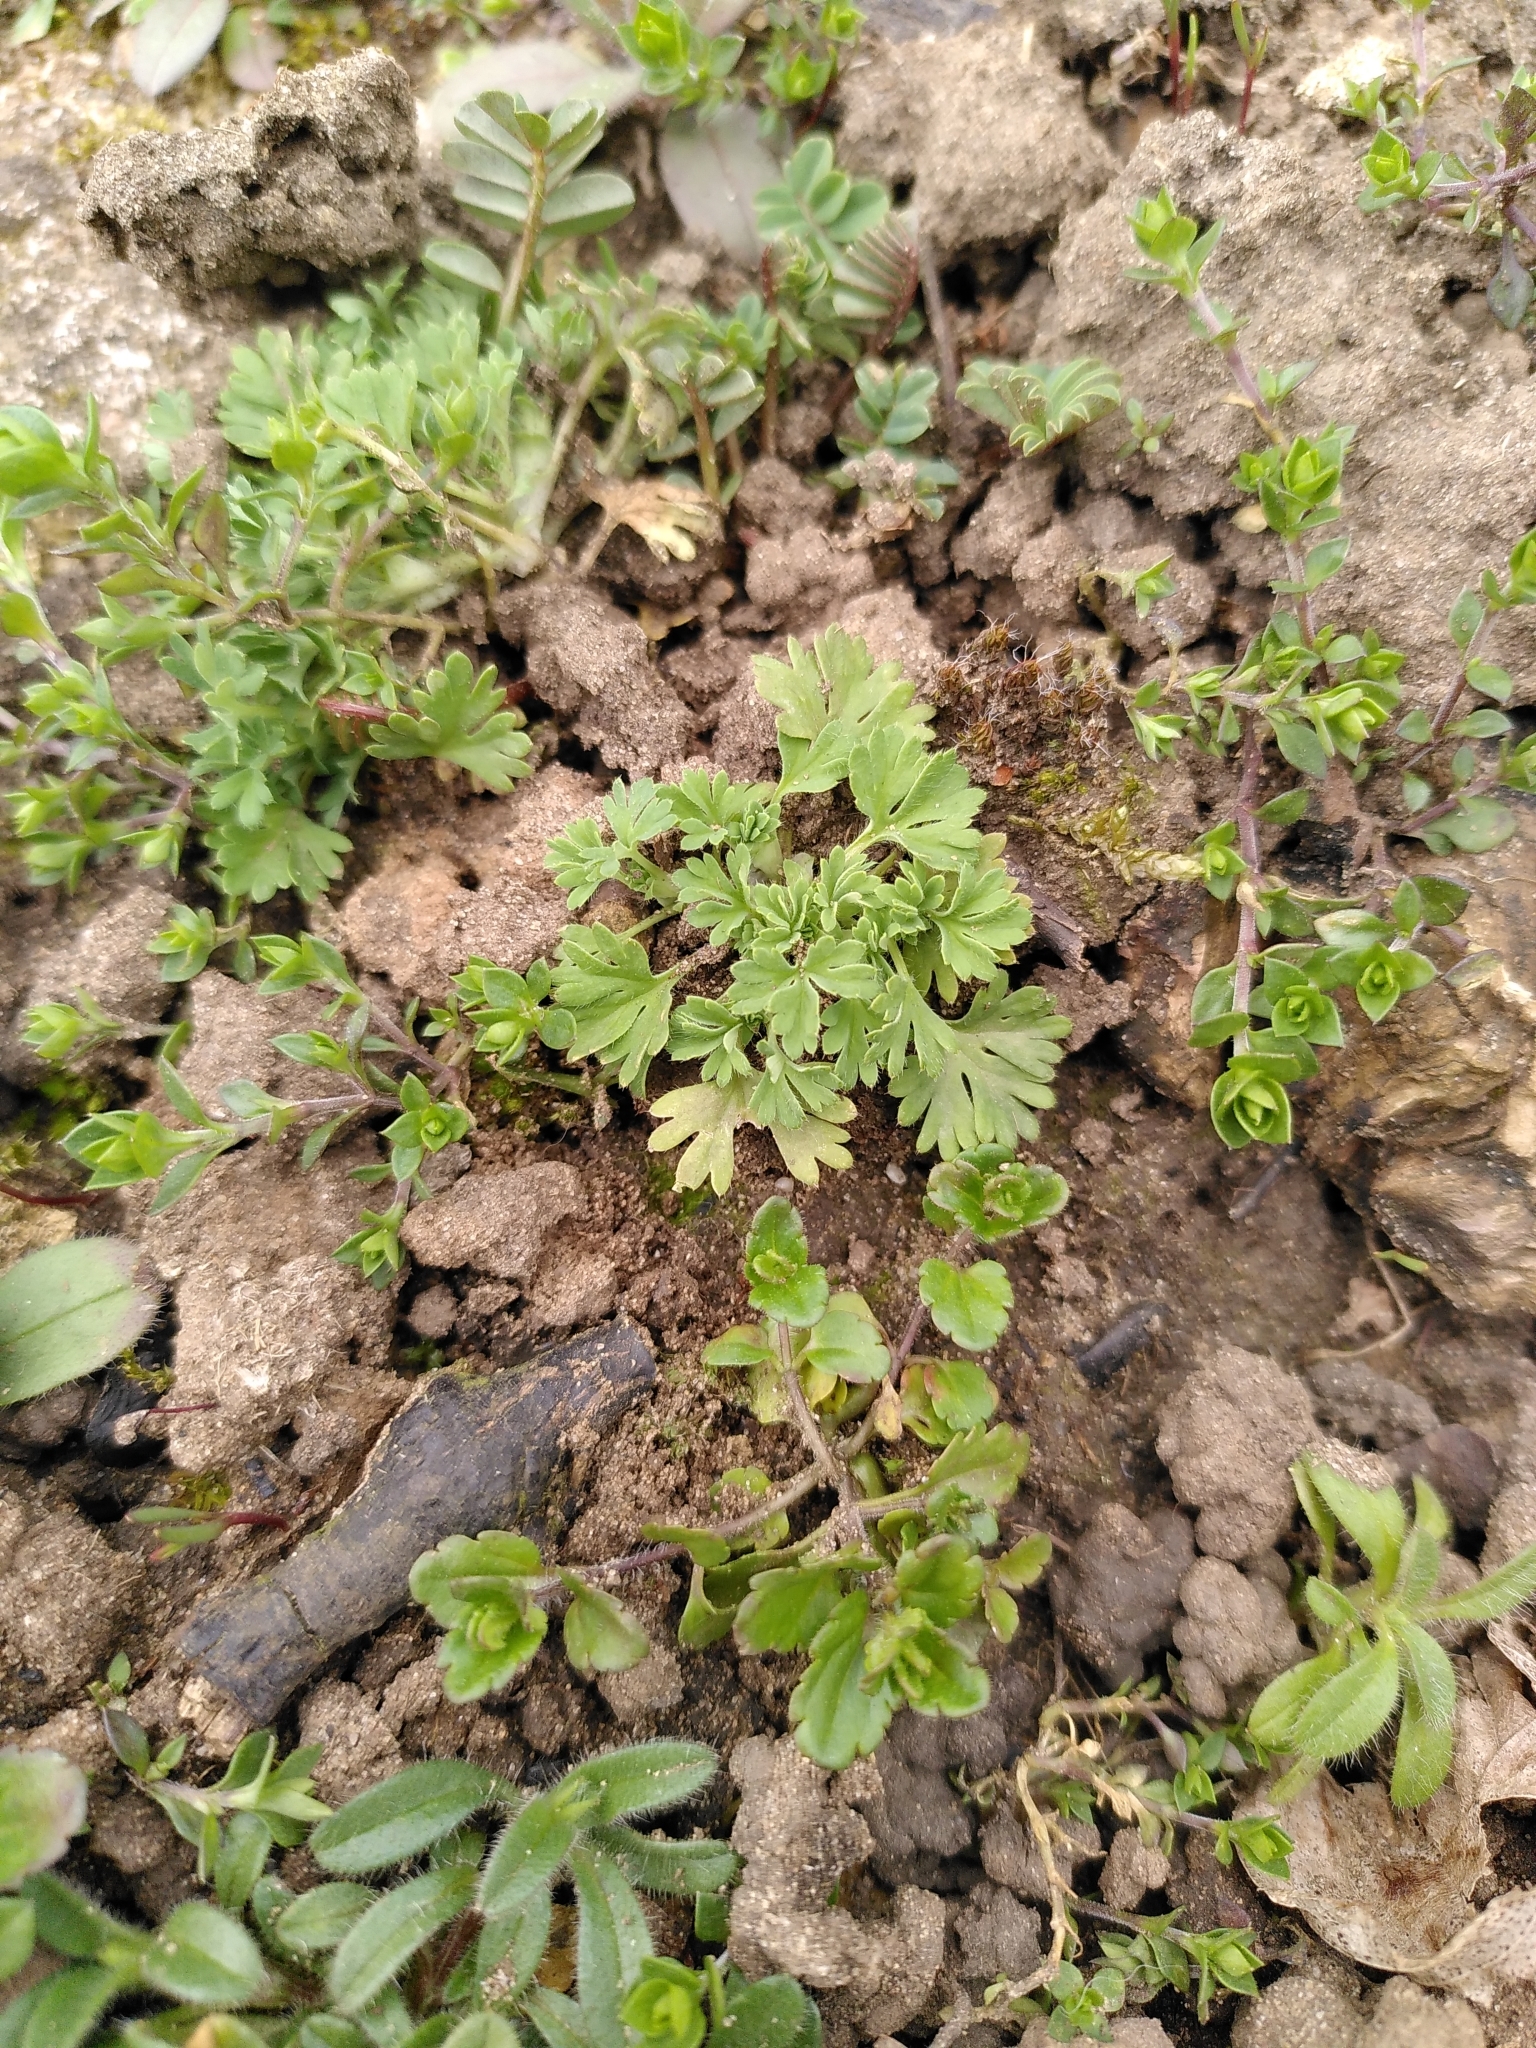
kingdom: Plantae
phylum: Tracheophyta
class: Magnoliopsida
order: Rosales
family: Rosaceae
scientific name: Rosaceae
